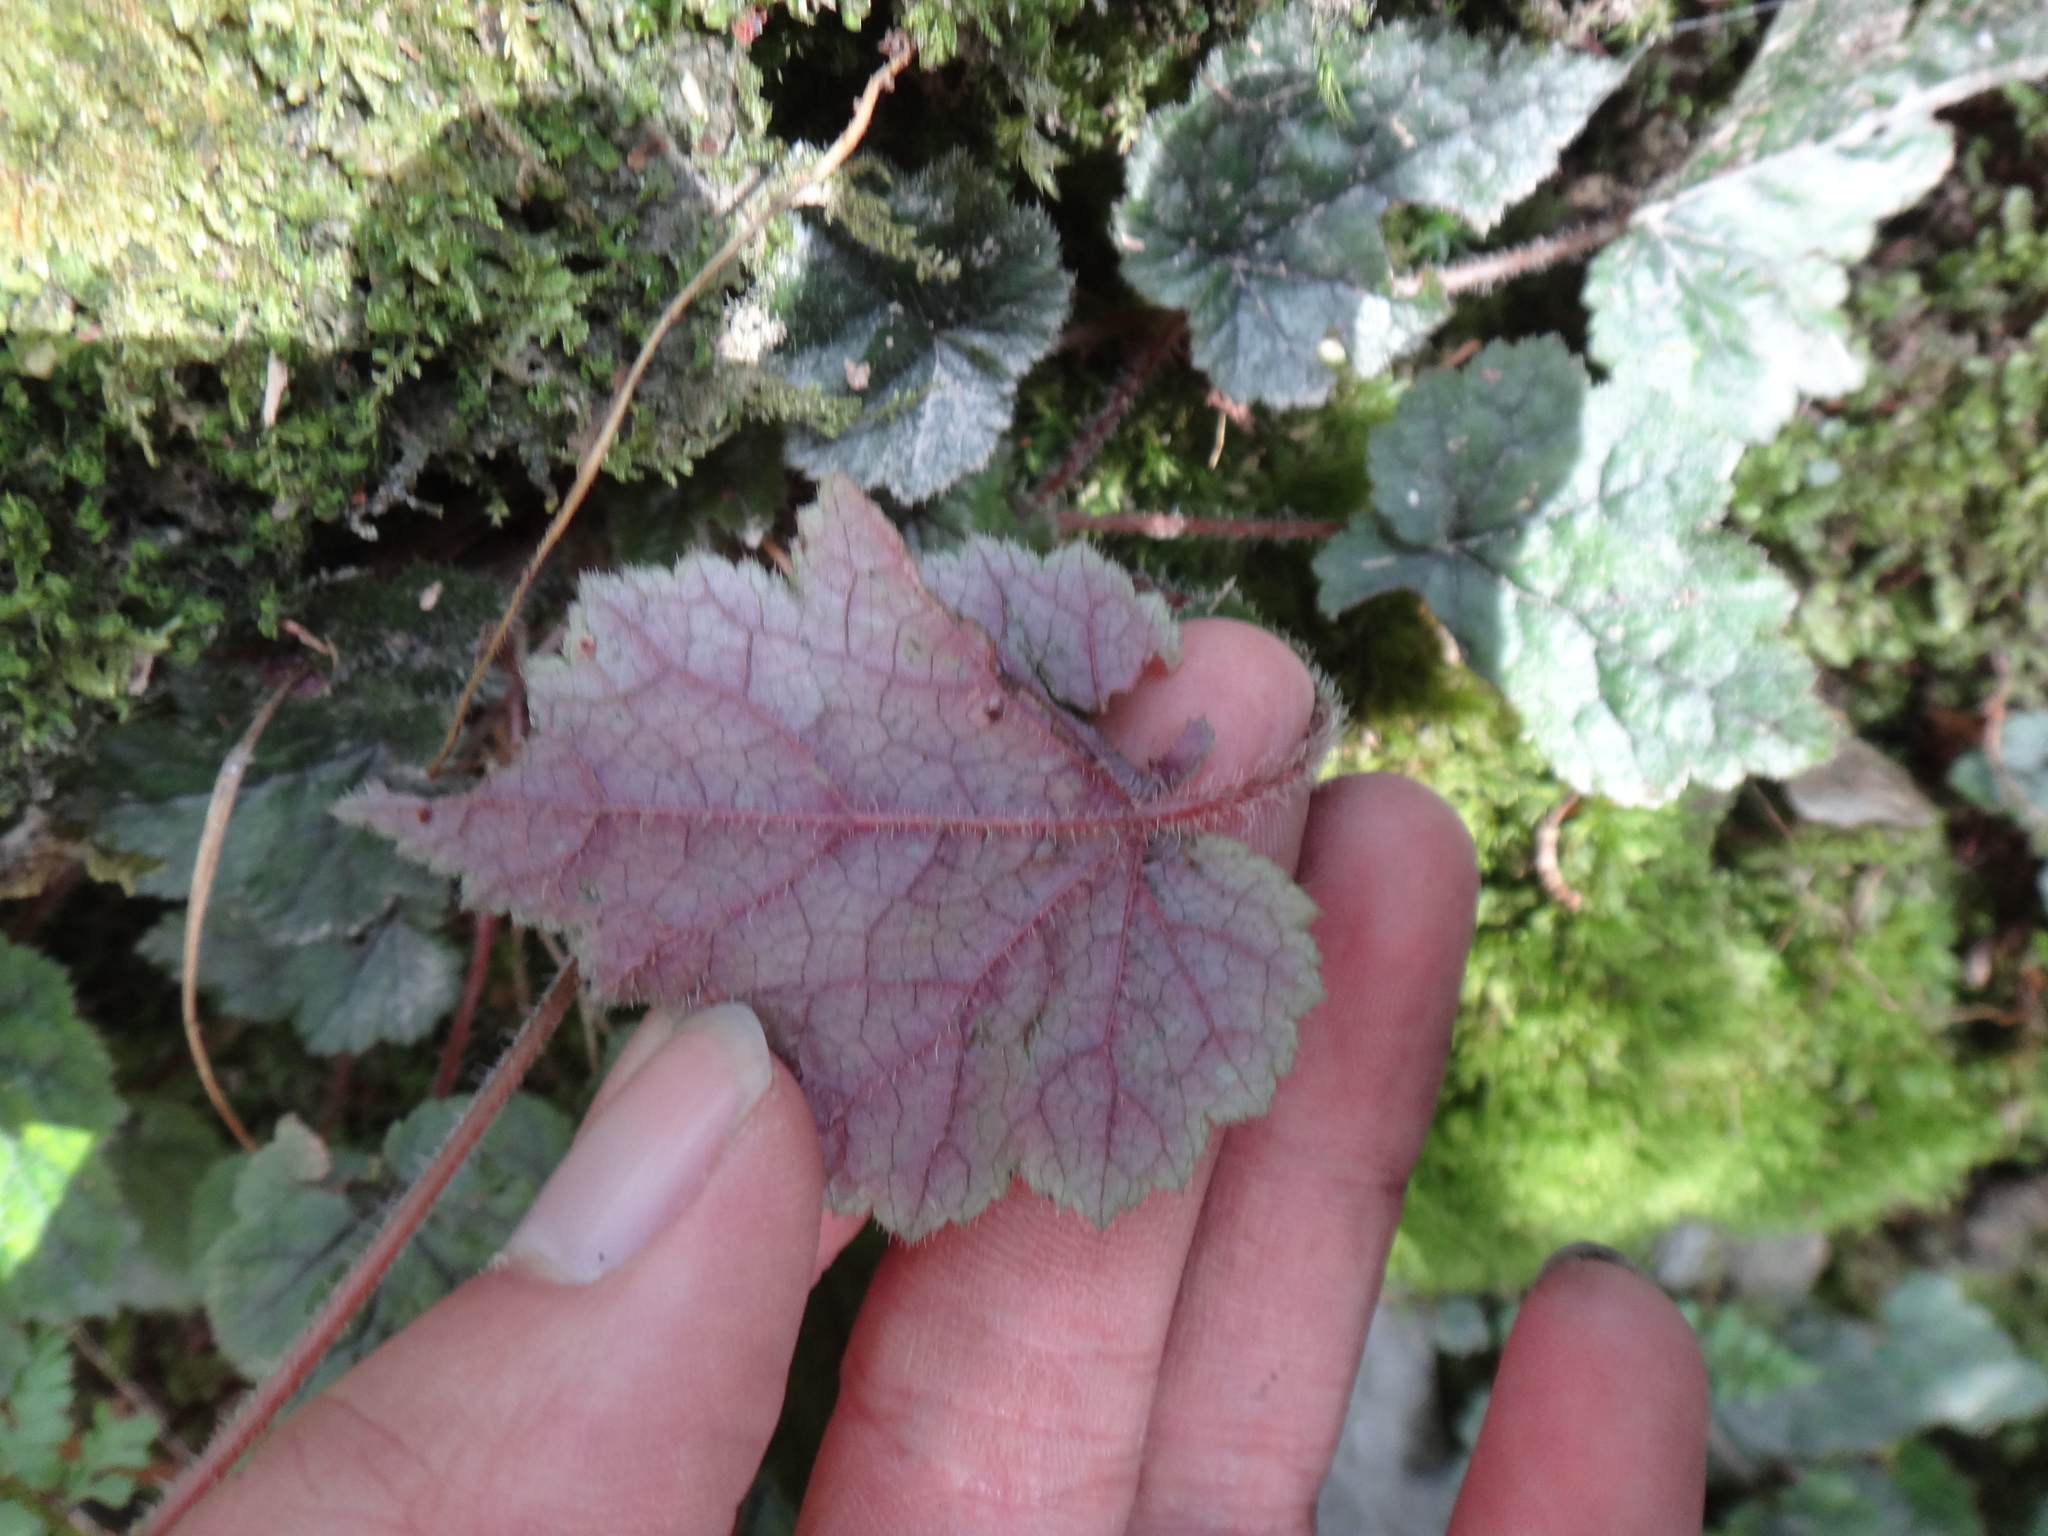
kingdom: Plantae
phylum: Tracheophyta
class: Magnoliopsida
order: Saxifragales
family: Saxifragaceae
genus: Asimitellaria
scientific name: Asimitellaria formosana
